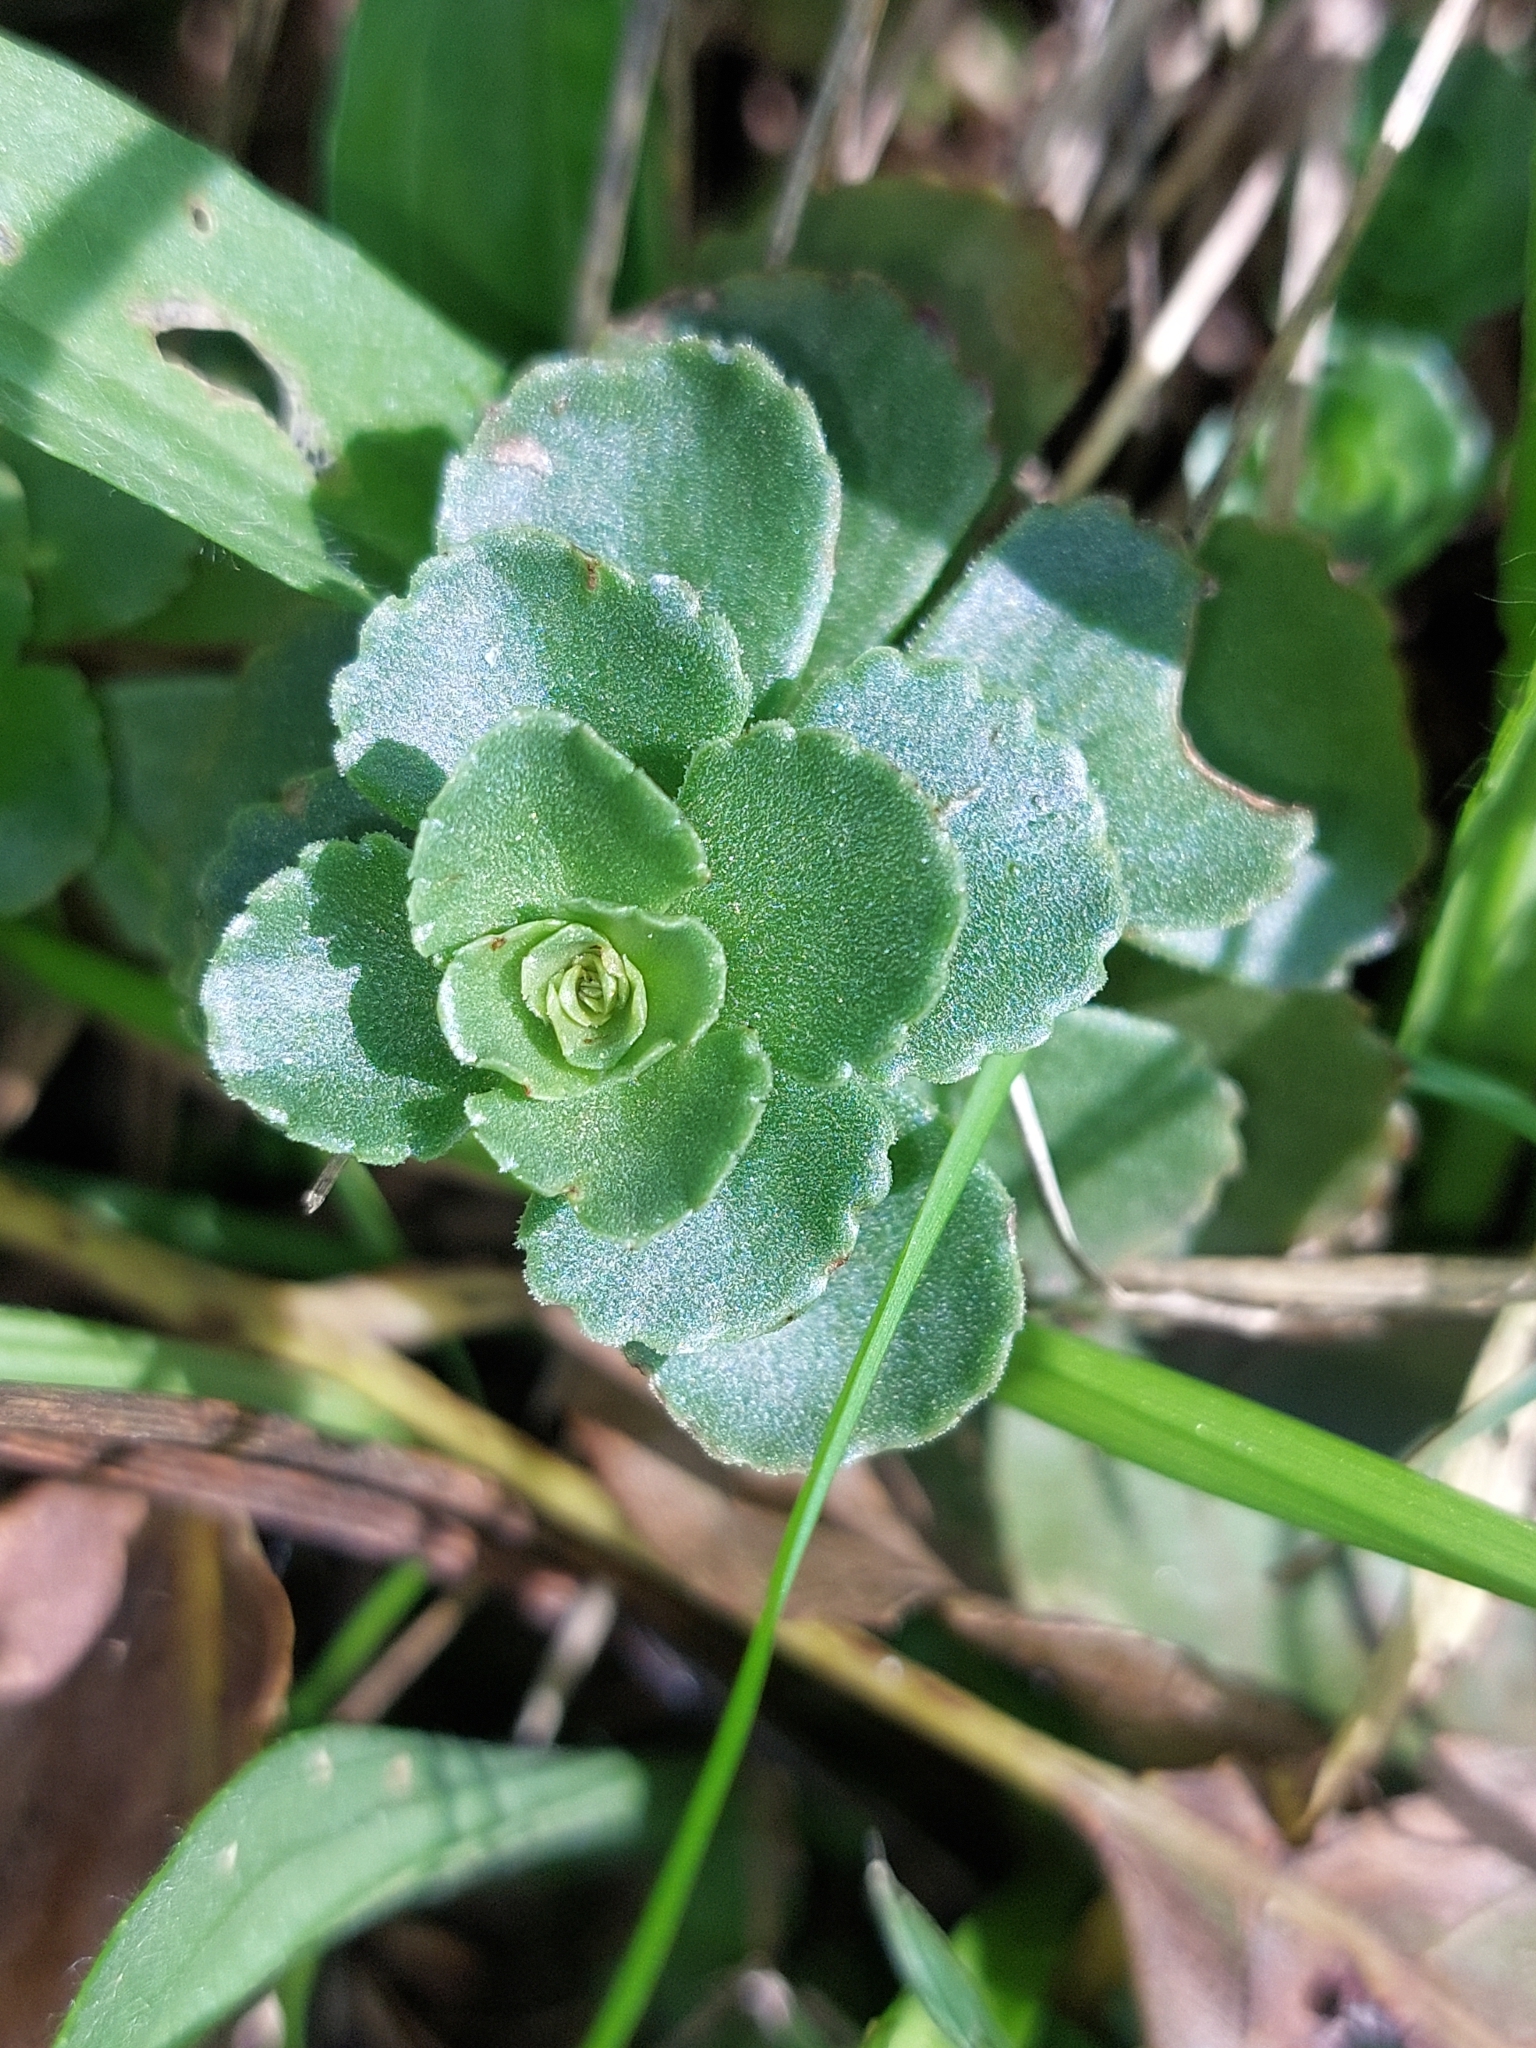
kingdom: Plantae
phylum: Tracheophyta
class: Magnoliopsida
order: Saxifragales
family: Crassulaceae
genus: Phedimus
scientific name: Phedimus spurius
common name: Caucasian stonecrop
